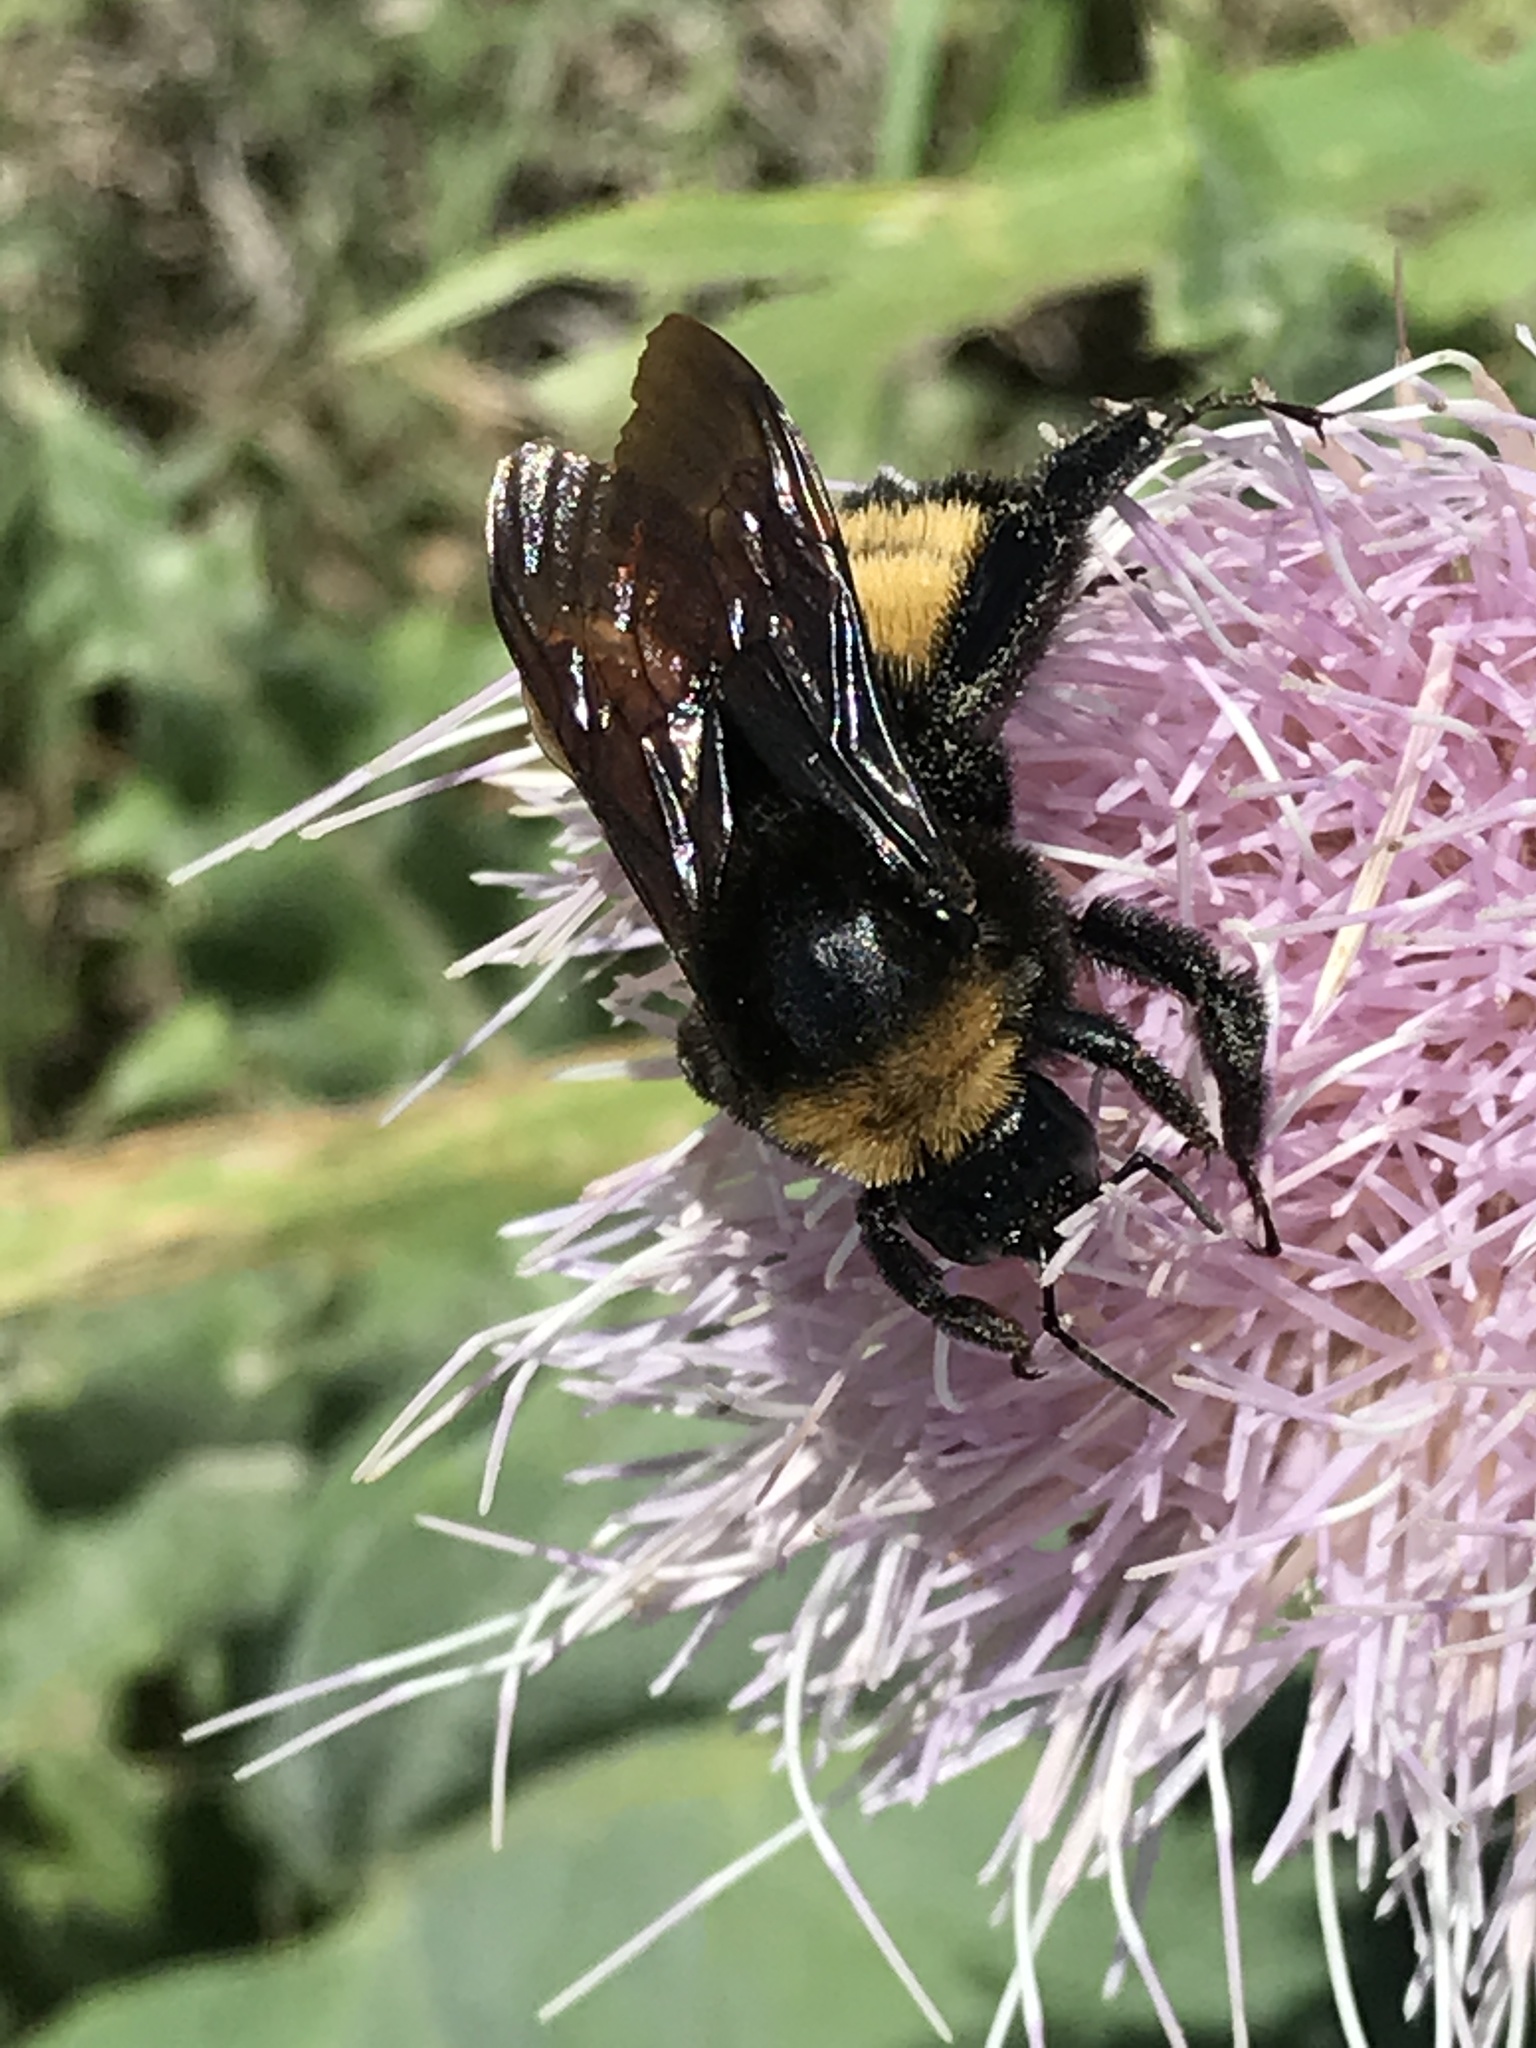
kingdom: Animalia
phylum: Arthropoda
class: Insecta
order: Hymenoptera
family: Apidae
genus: Bombus
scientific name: Bombus pensylvanicus
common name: Bumble bee
